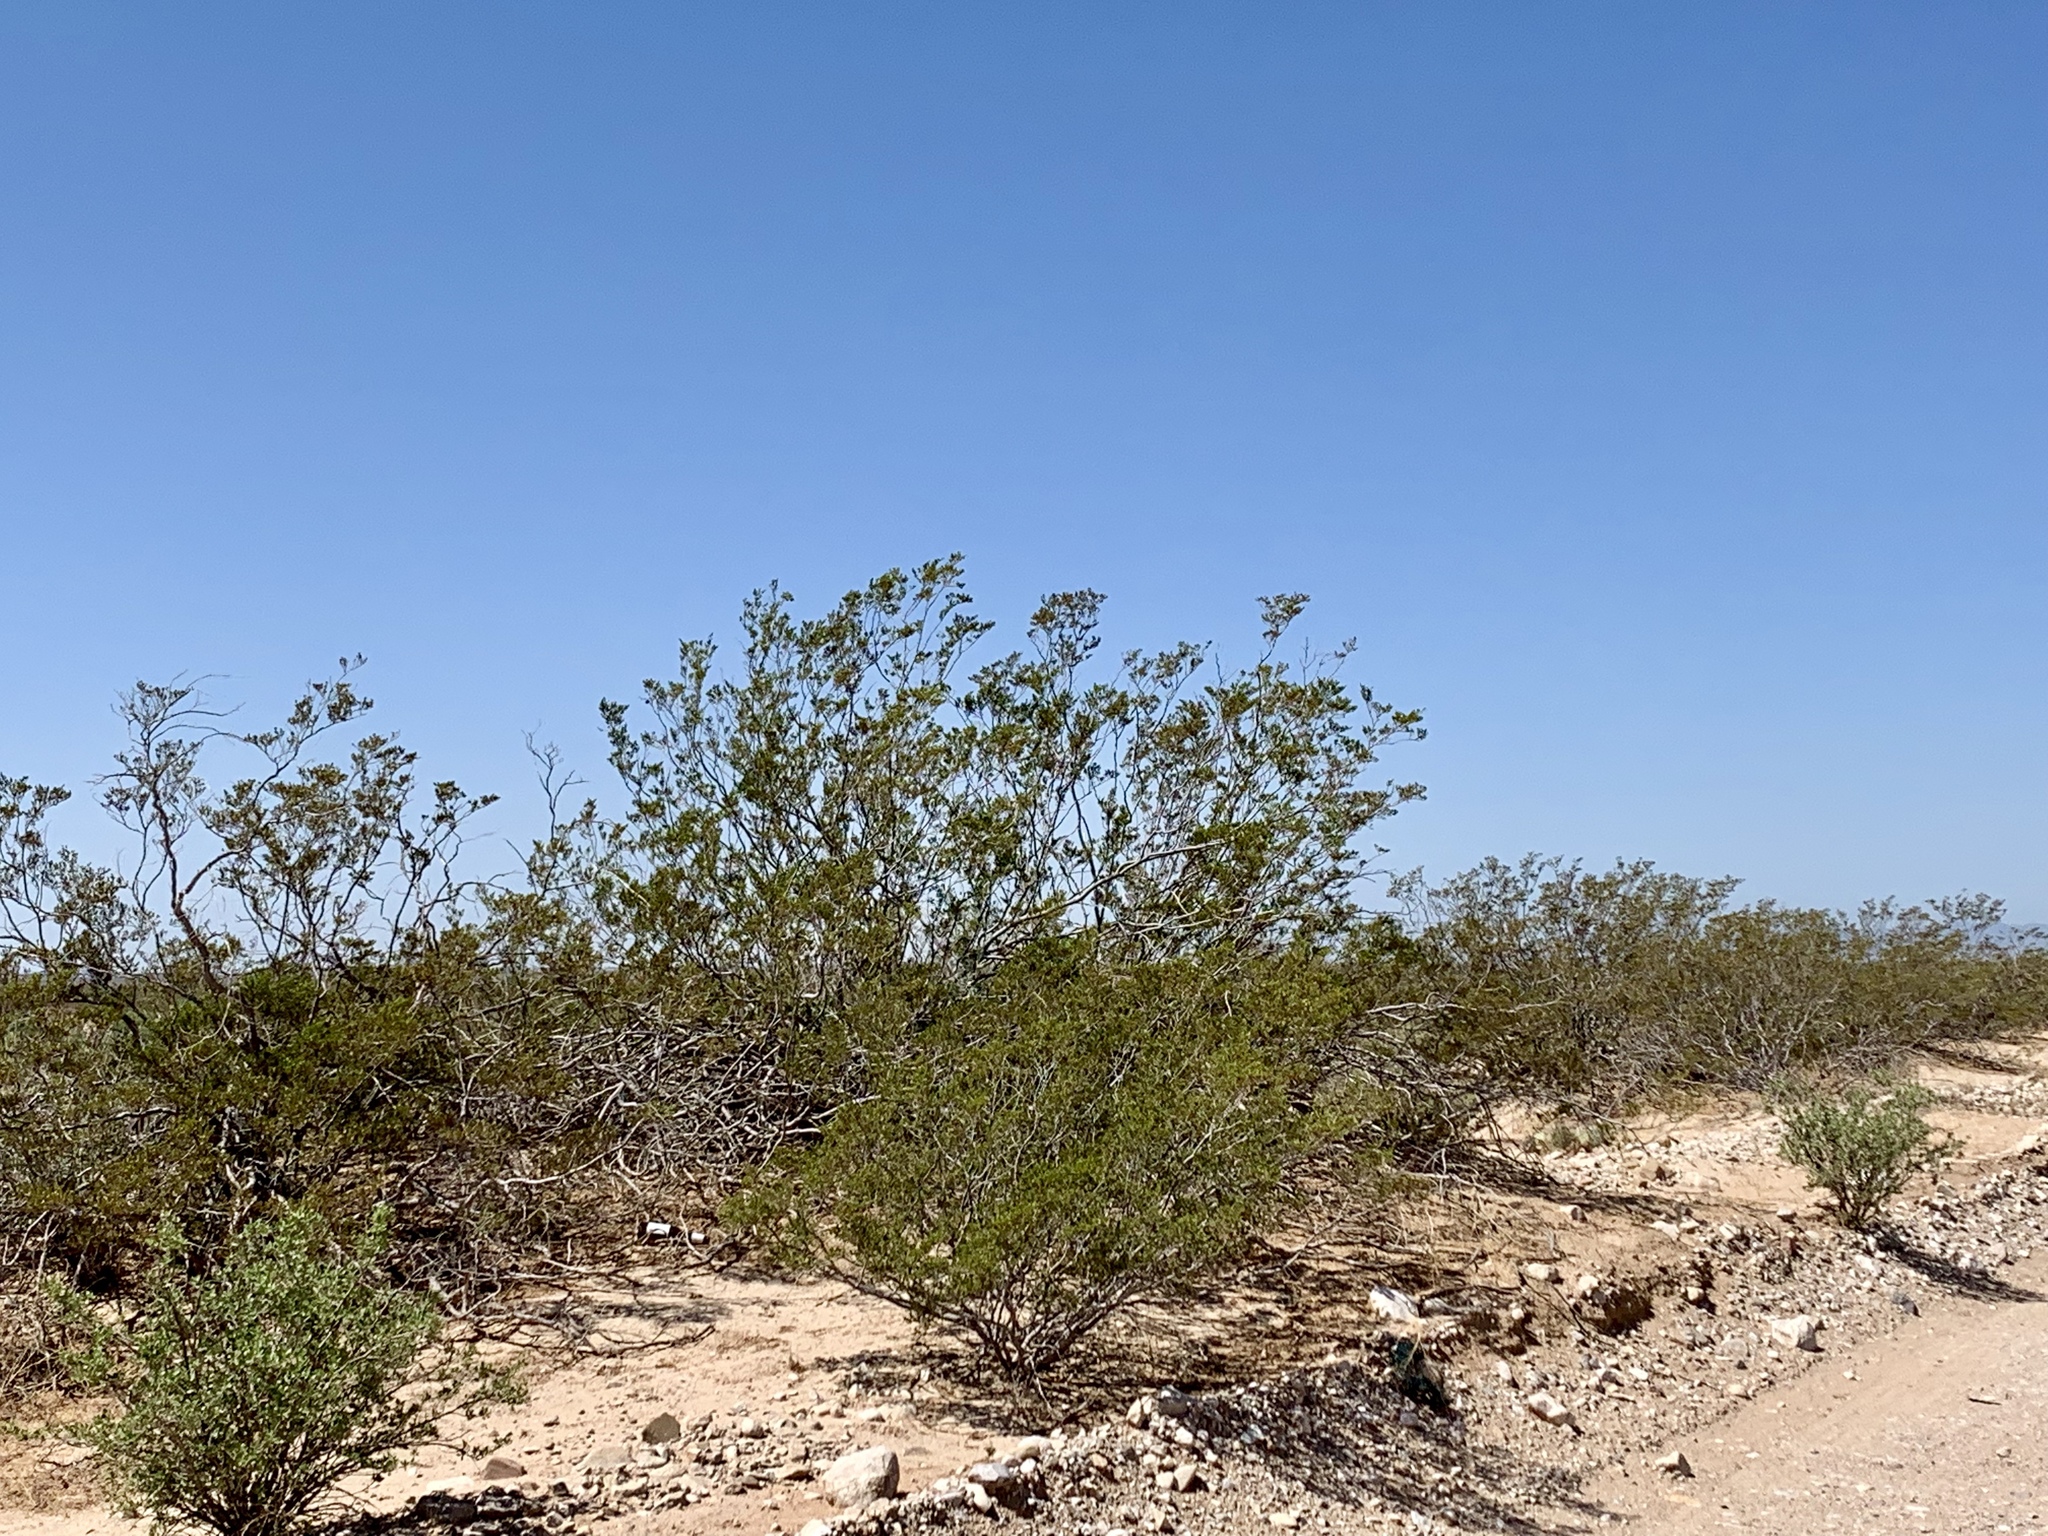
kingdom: Plantae
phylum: Tracheophyta
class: Magnoliopsida
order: Zygophyllales
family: Zygophyllaceae
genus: Larrea
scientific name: Larrea tridentata
